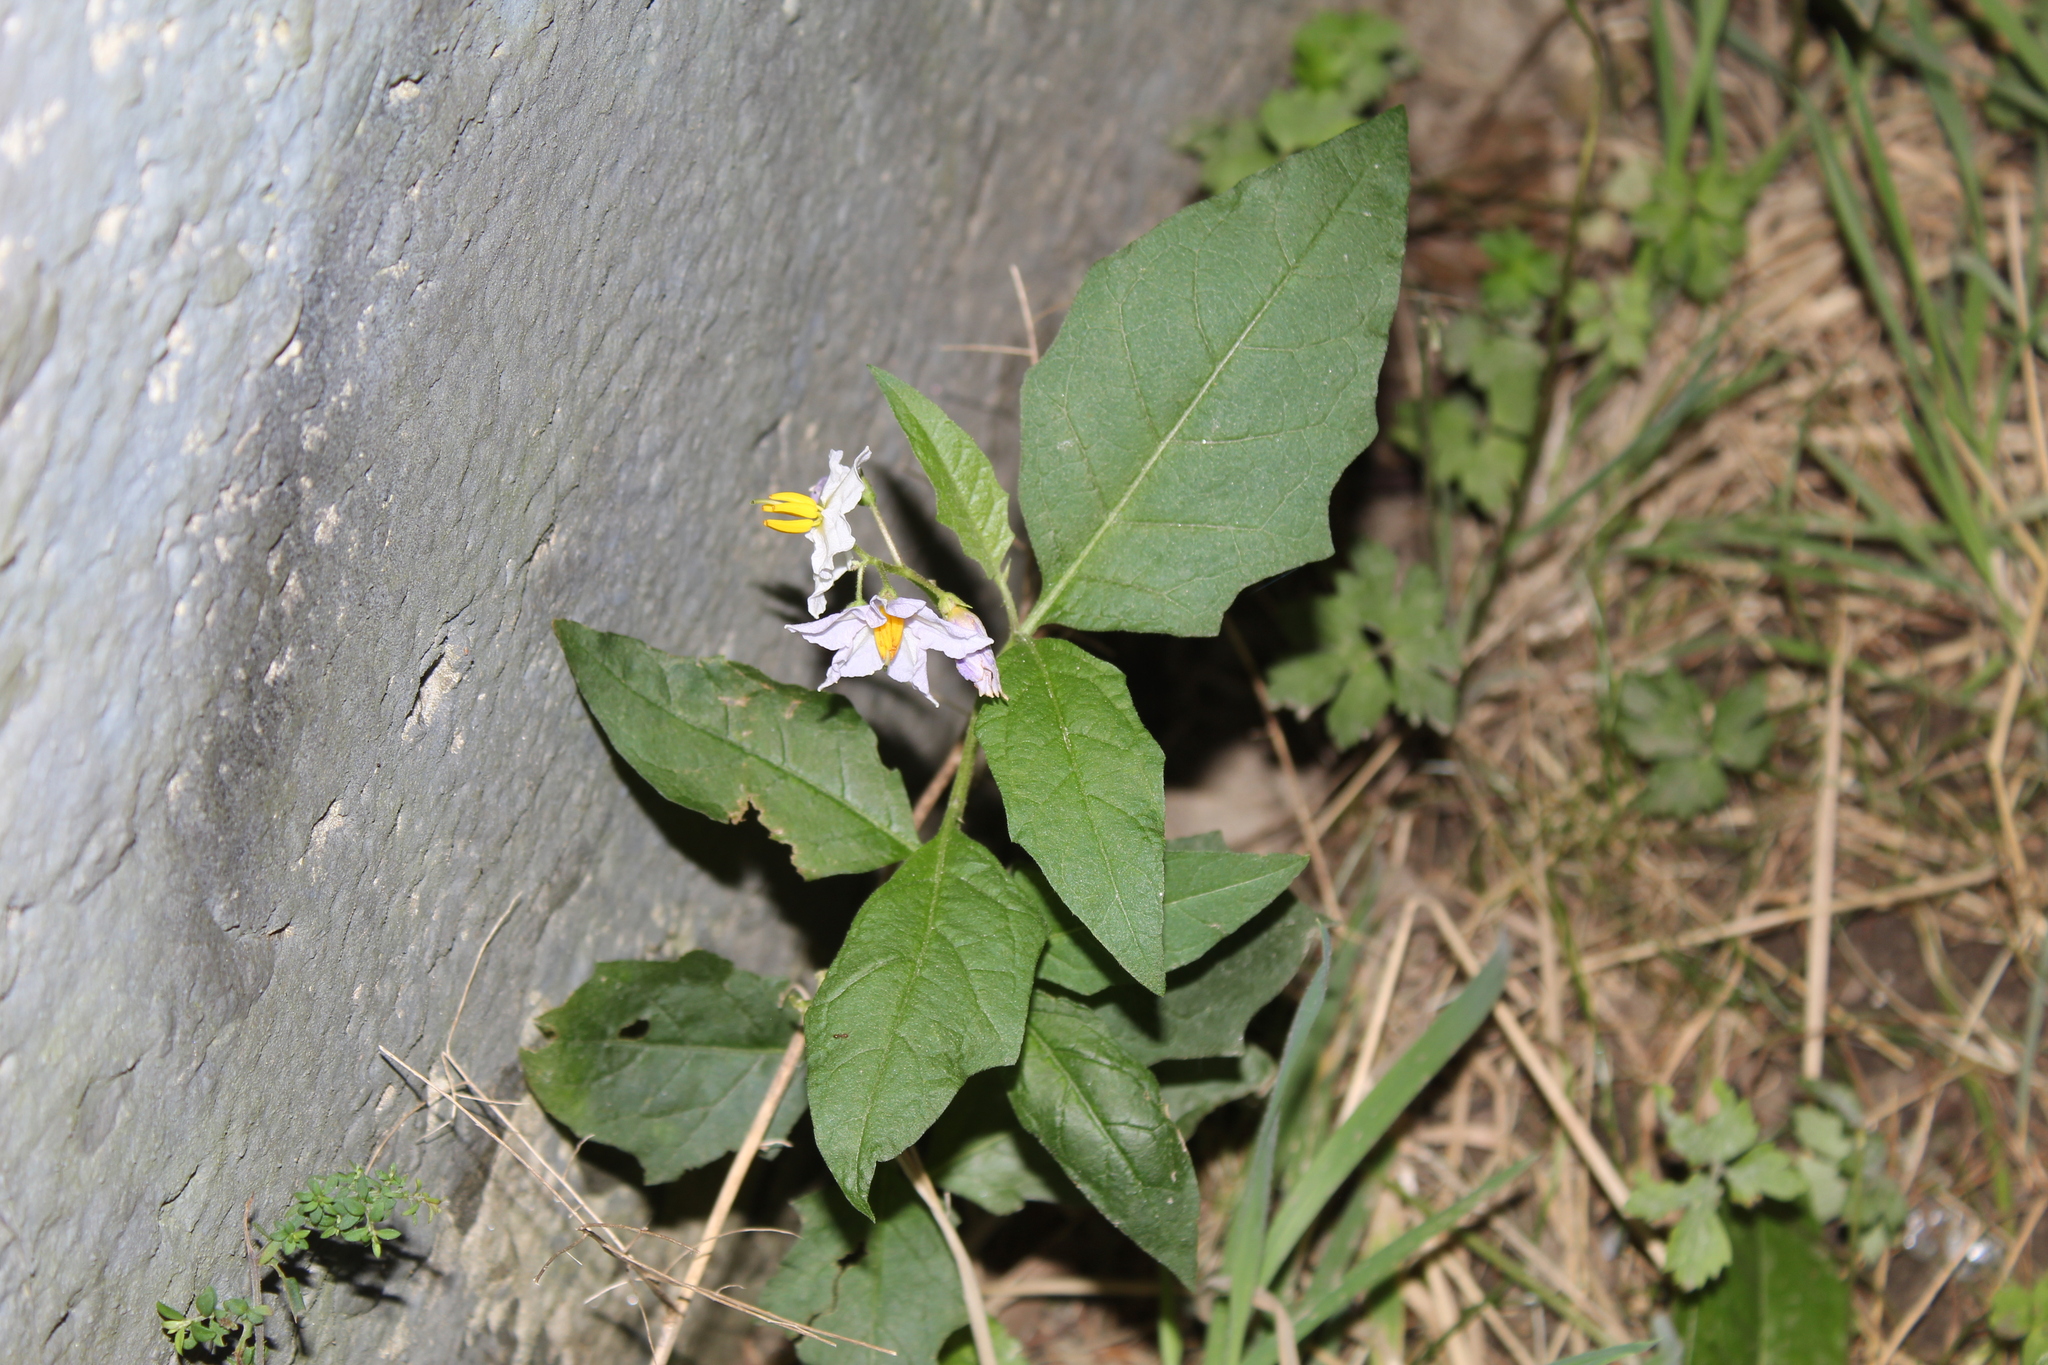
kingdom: Plantae
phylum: Tracheophyta
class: Magnoliopsida
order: Solanales
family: Solanaceae
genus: Solanum
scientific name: Solanum carolinense
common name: Horse-nettle
